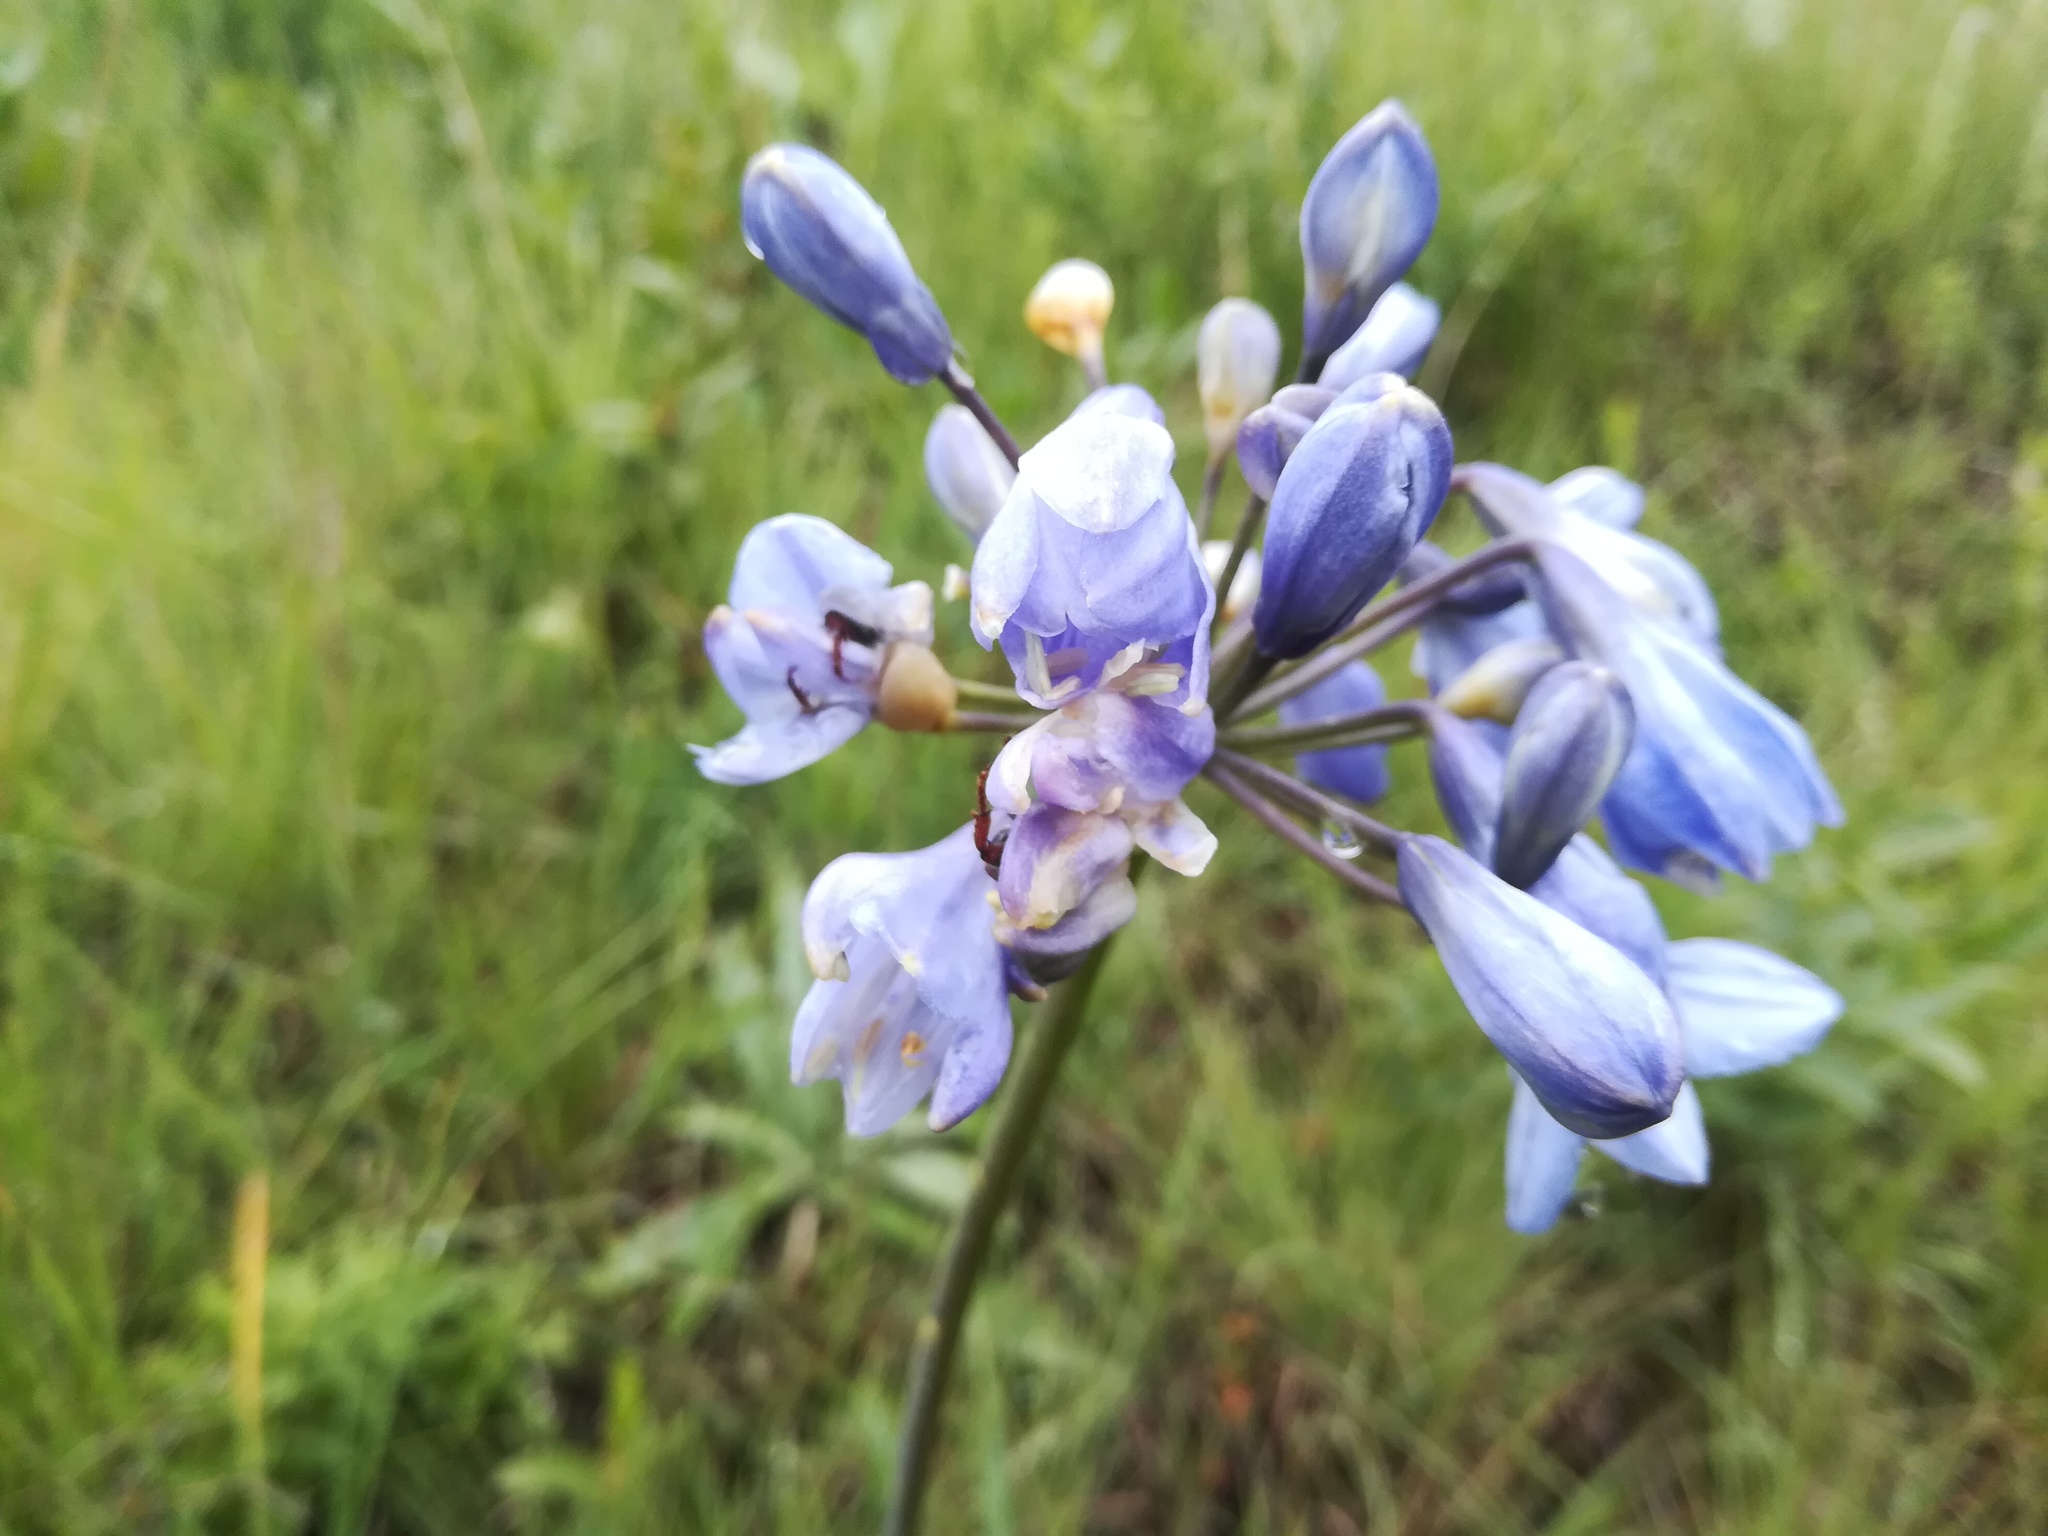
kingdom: Plantae
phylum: Tracheophyta
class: Liliopsida
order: Asparagales
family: Amaryllidaceae
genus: Agapanthus
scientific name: Agapanthus campanulatus
